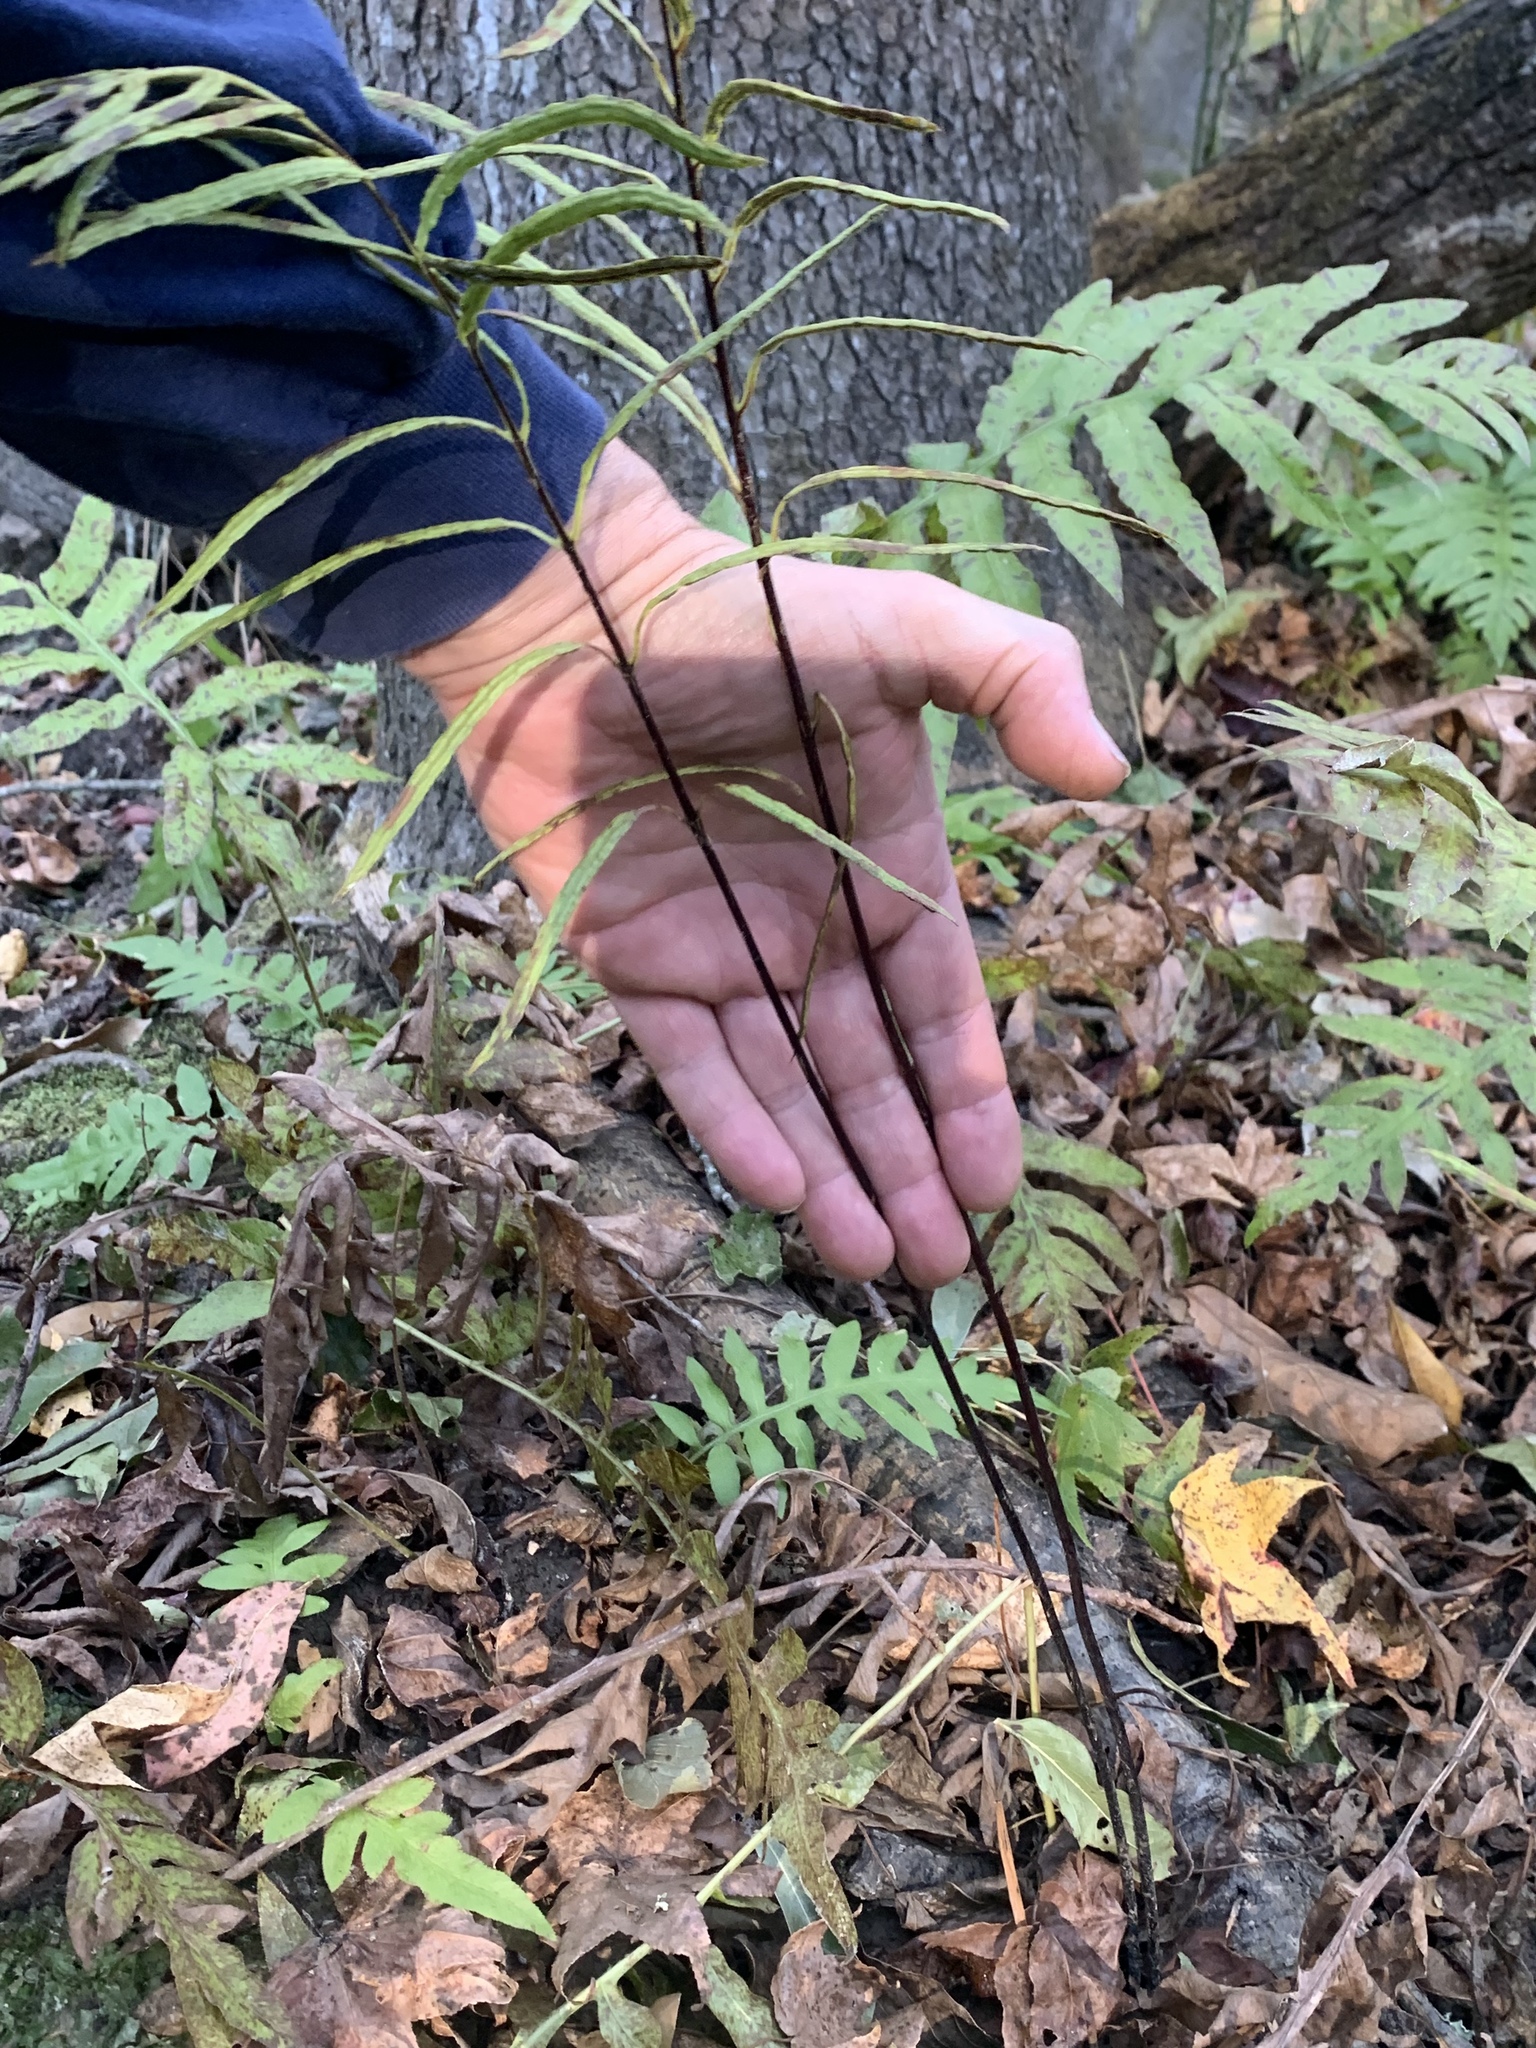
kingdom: Plantae
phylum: Tracheophyta
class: Polypodiopsida
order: Polypodiales
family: Blechnaceae
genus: Lorinseria
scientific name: Lorinseria areolata
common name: Dwarf chain fern
